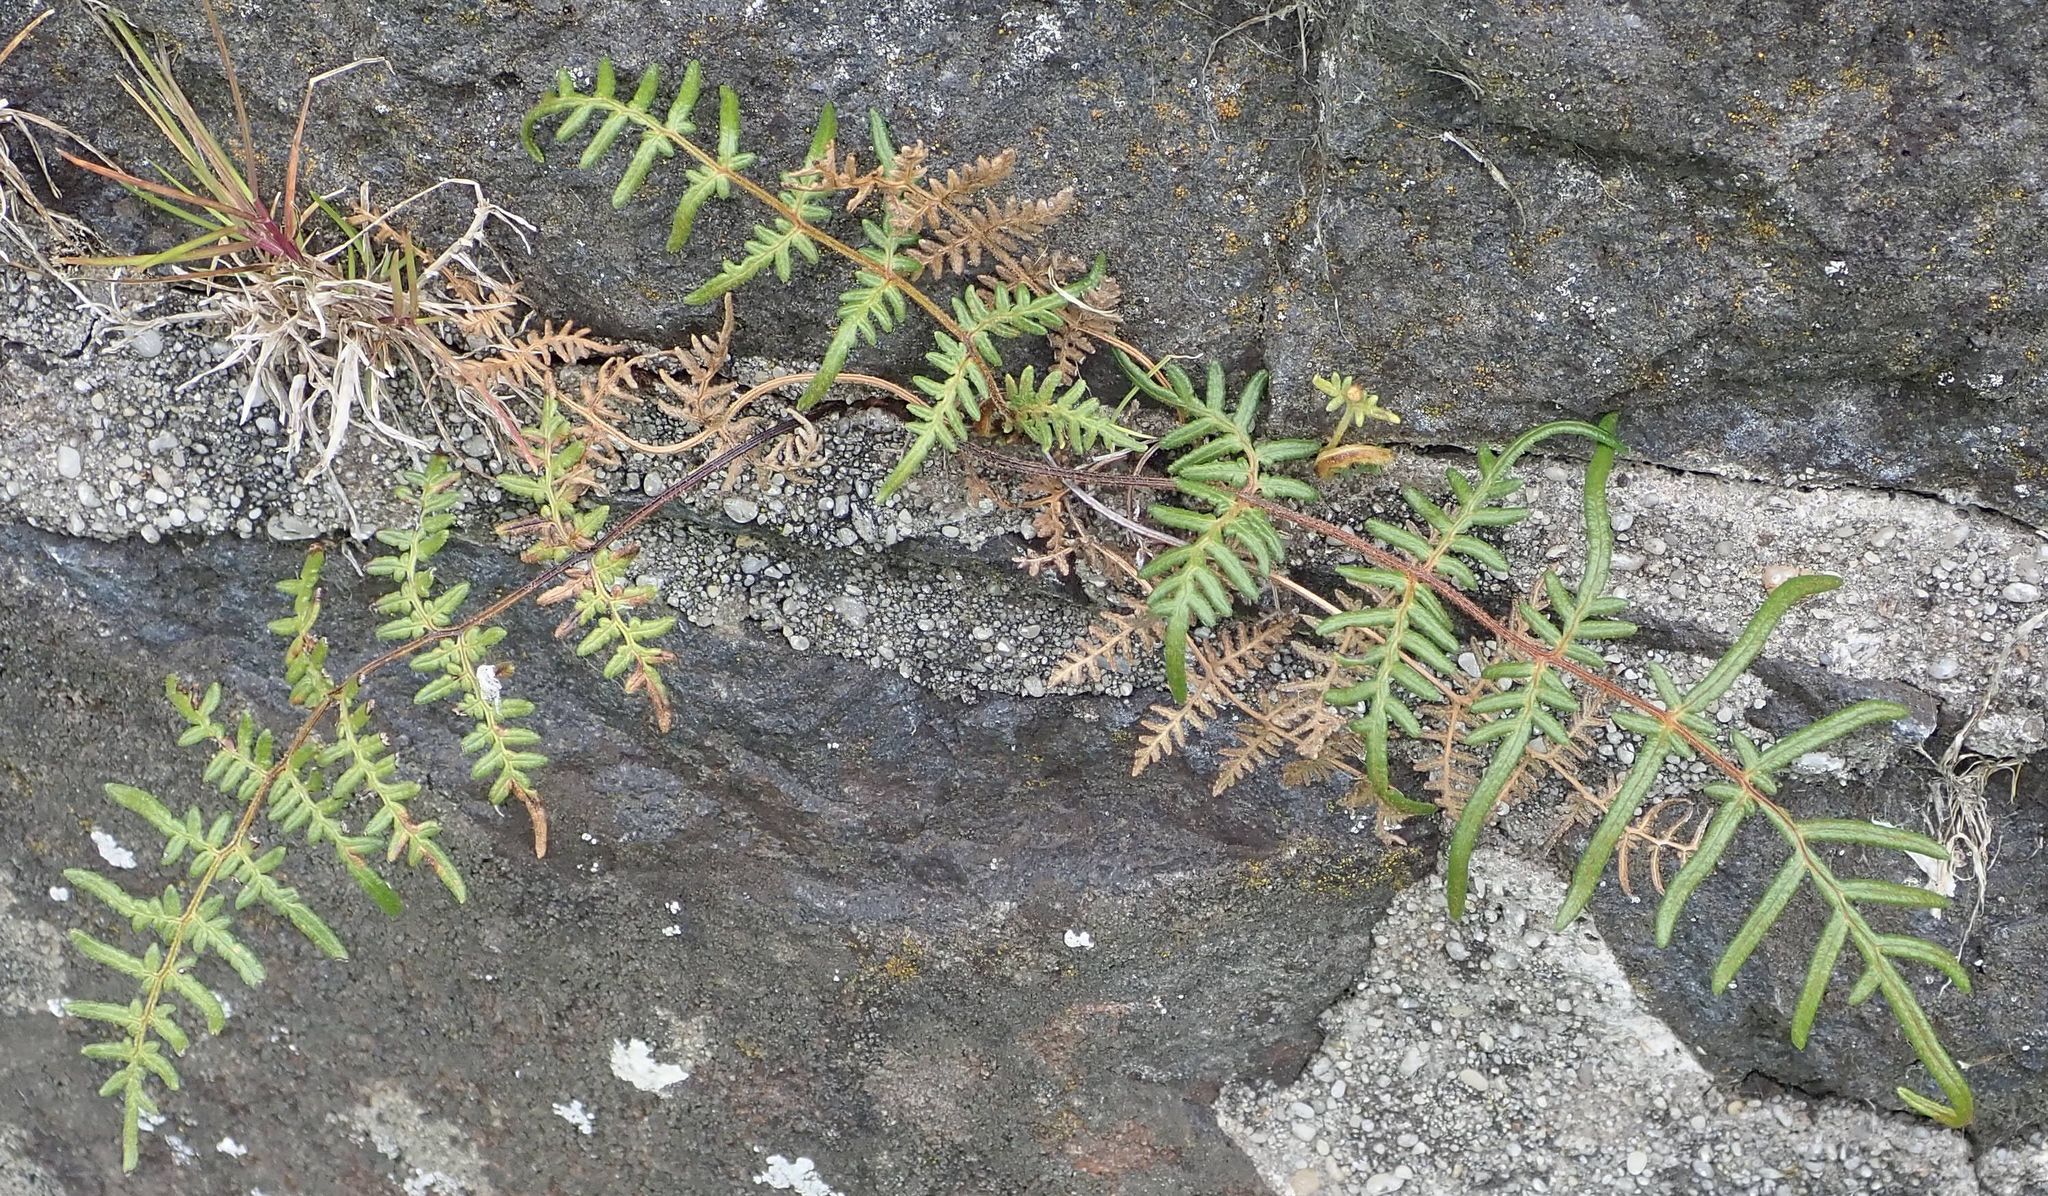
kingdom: Plantae
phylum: Tracheophyta
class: Polypodiopsida
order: Polypodiales
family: Dennstaedtiaceae
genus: Pteridium
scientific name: Pteridium esculentum
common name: Bracken fern
